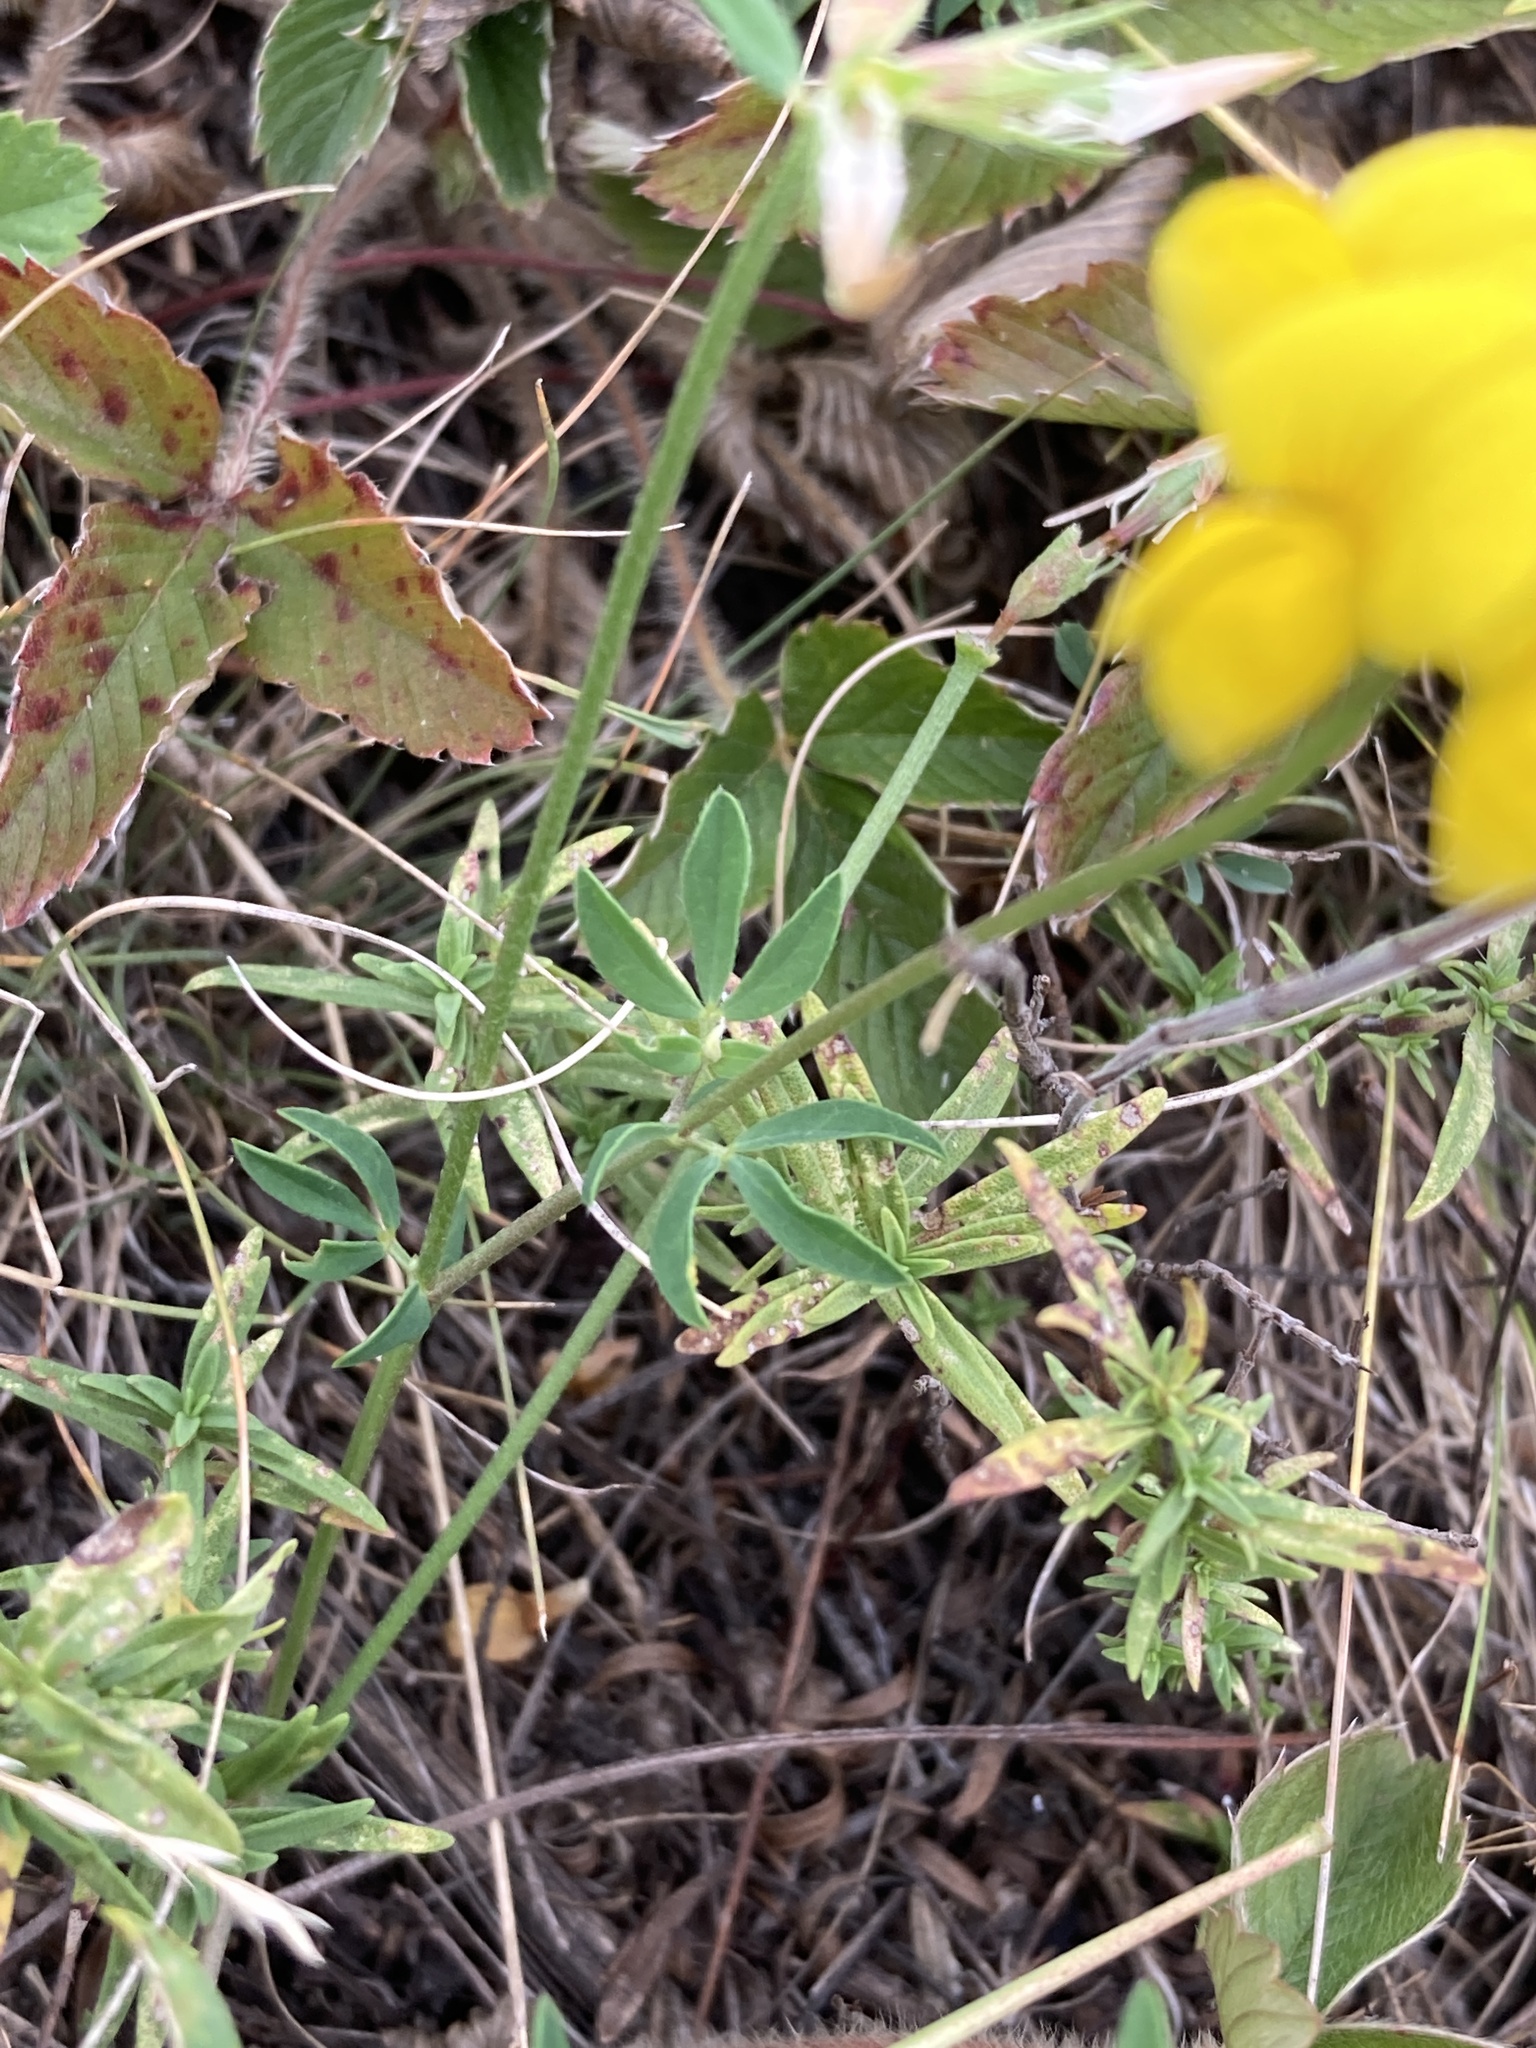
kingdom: Plantae
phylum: Tracheophyta
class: Magnoliopsida
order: Fabales
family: Fabaceae
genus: Lotus
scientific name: Lotus corniculatus
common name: Common bird's-foot-trefoil
